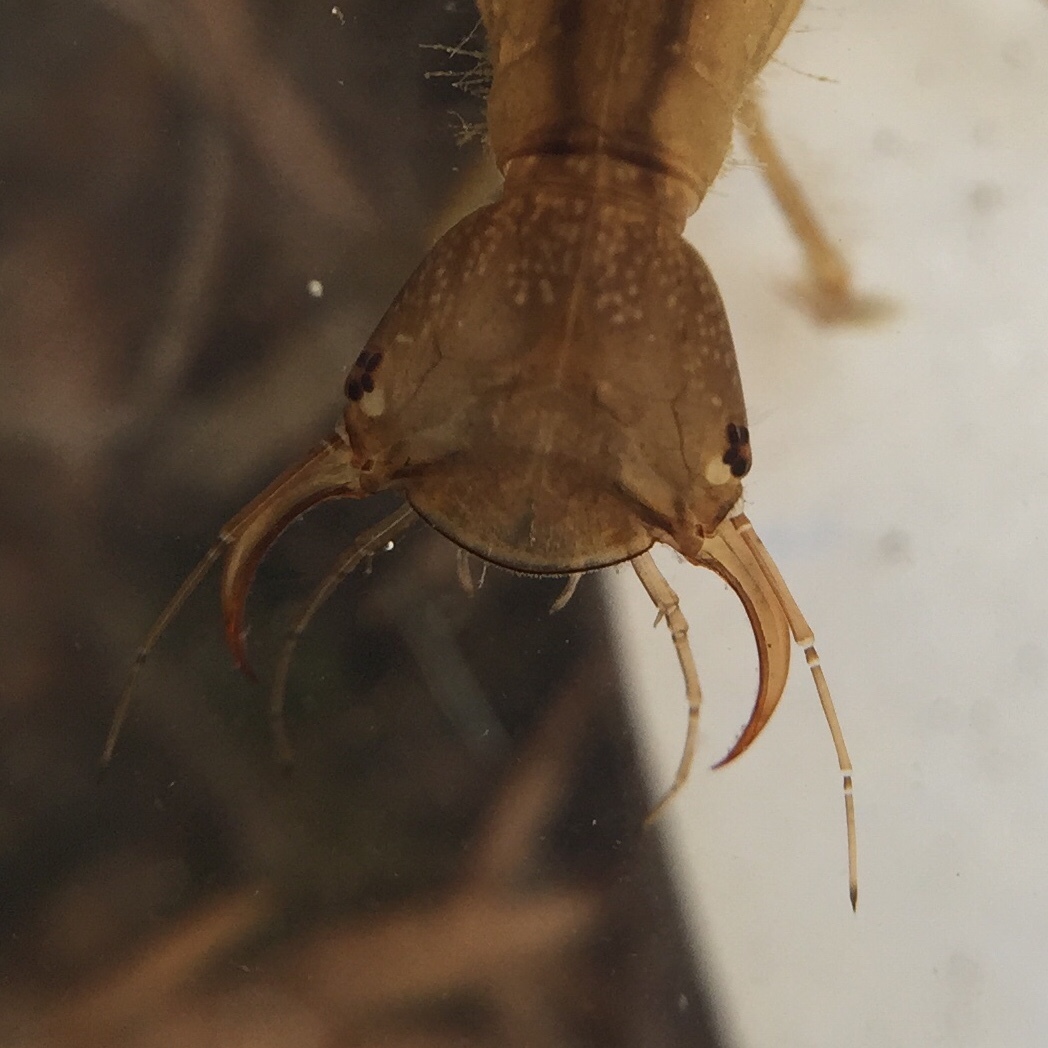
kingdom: Animalia
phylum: Arthropoda
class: Insecta
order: Coleoptera
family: Dytiscidae
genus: Dytiscus
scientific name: Dytiscus
